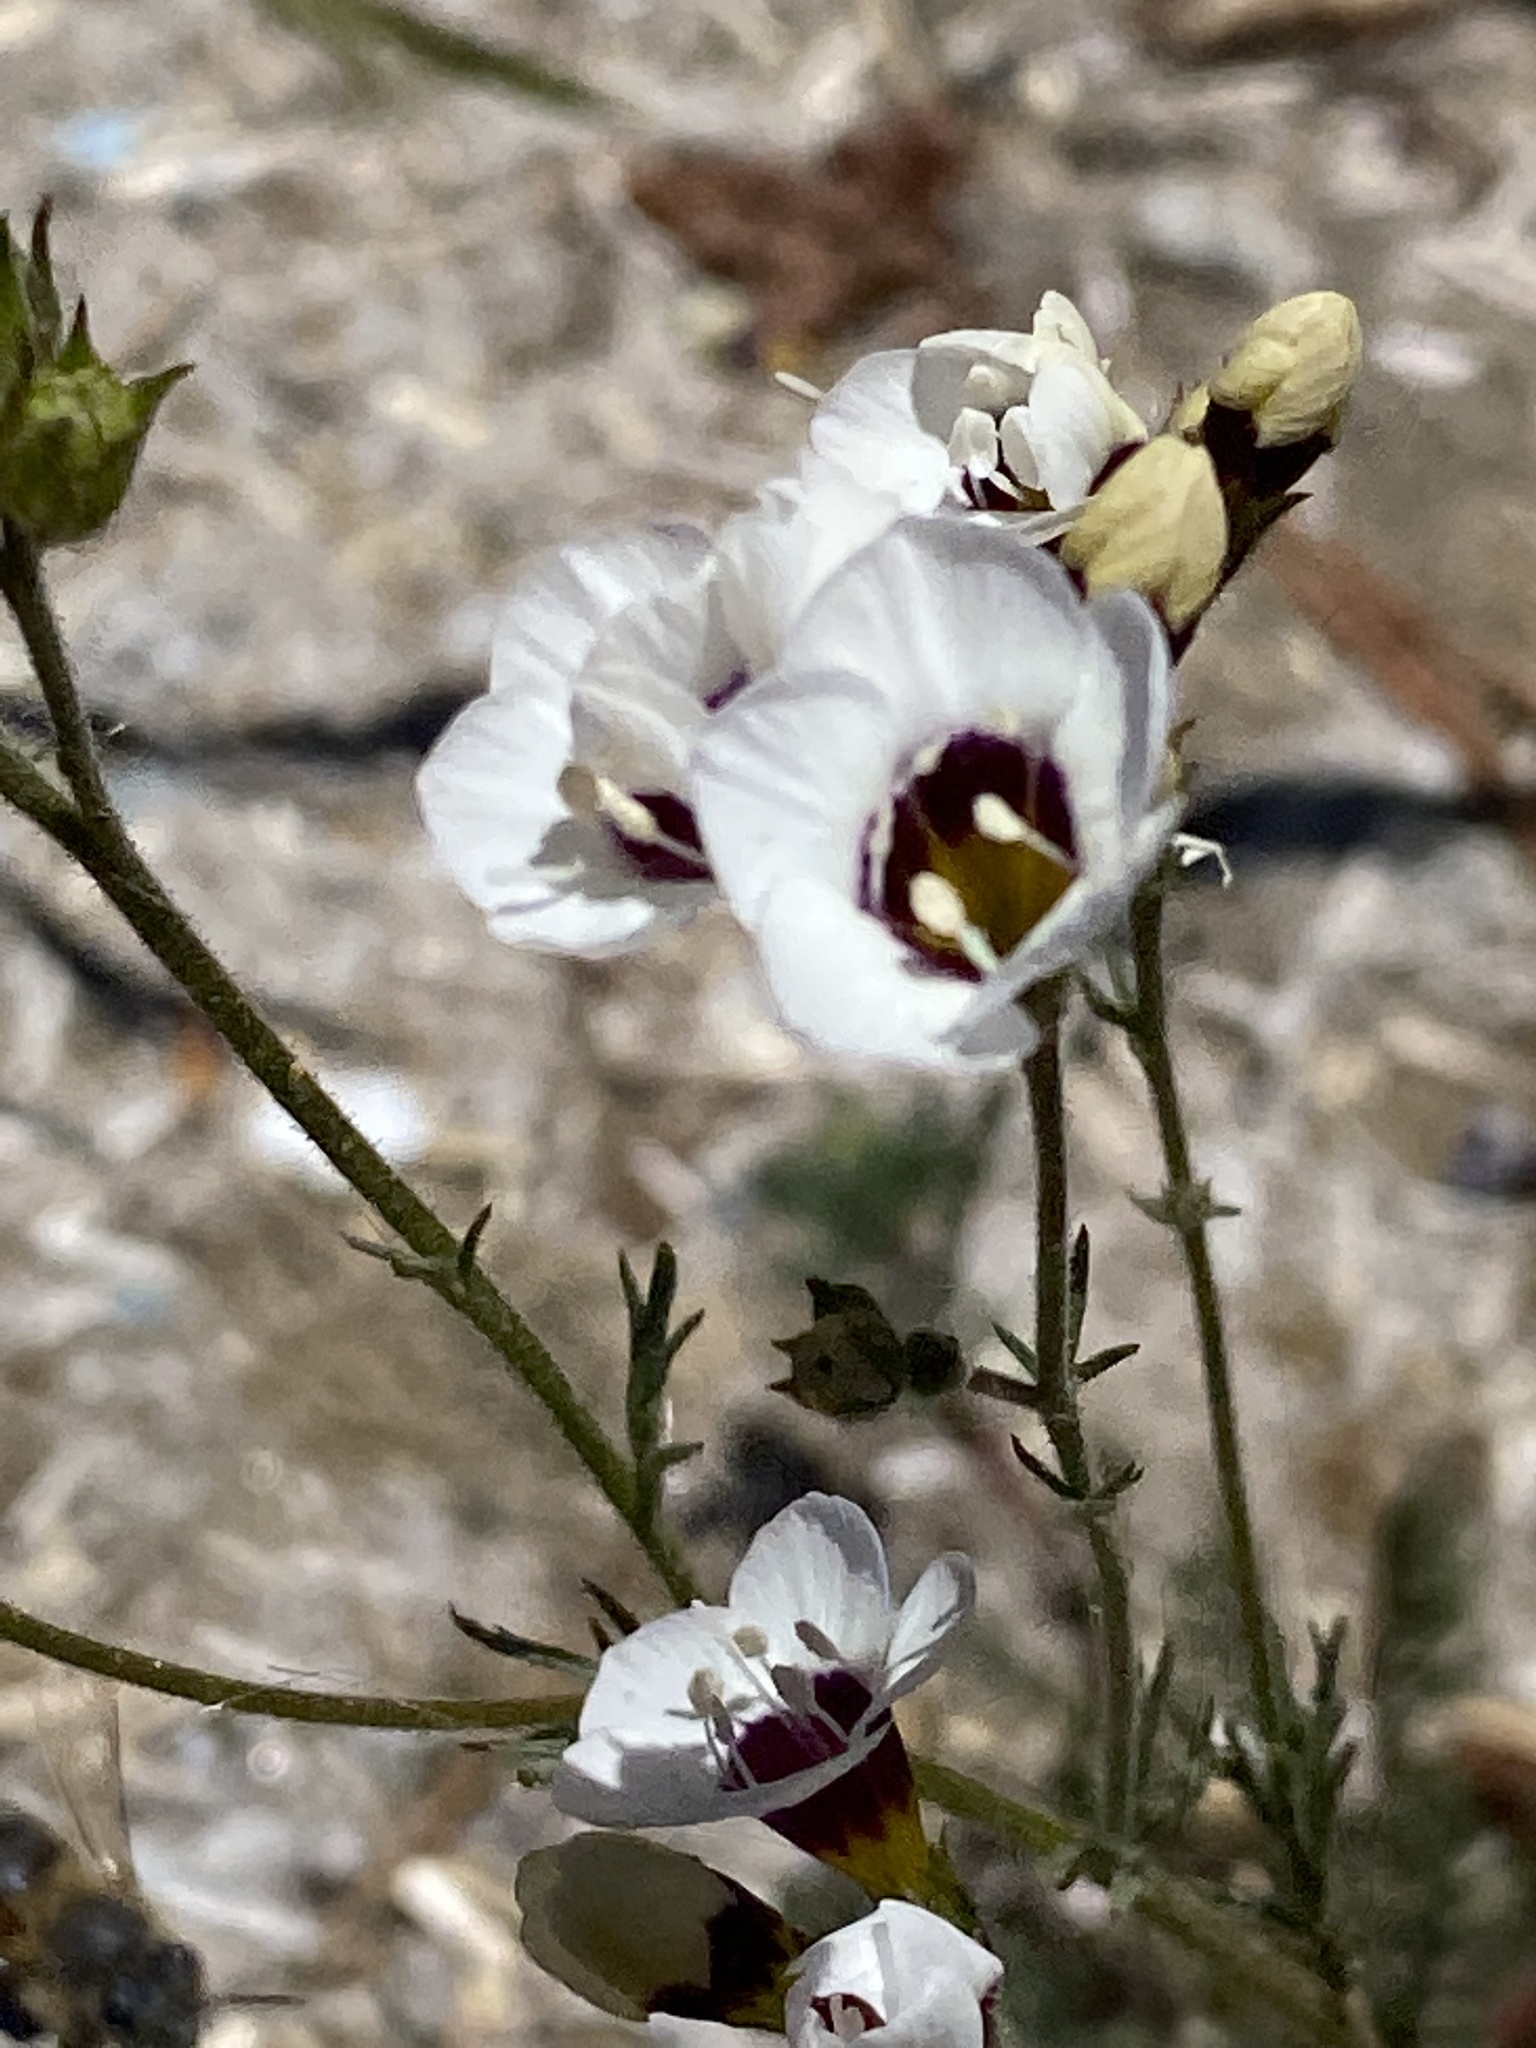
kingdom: Plantae
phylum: Tracheophyta
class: Magnoliopsida
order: Ericales
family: Polemoniaceae
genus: Gilia
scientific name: Gilia tricolor
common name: Bird's-eyes
